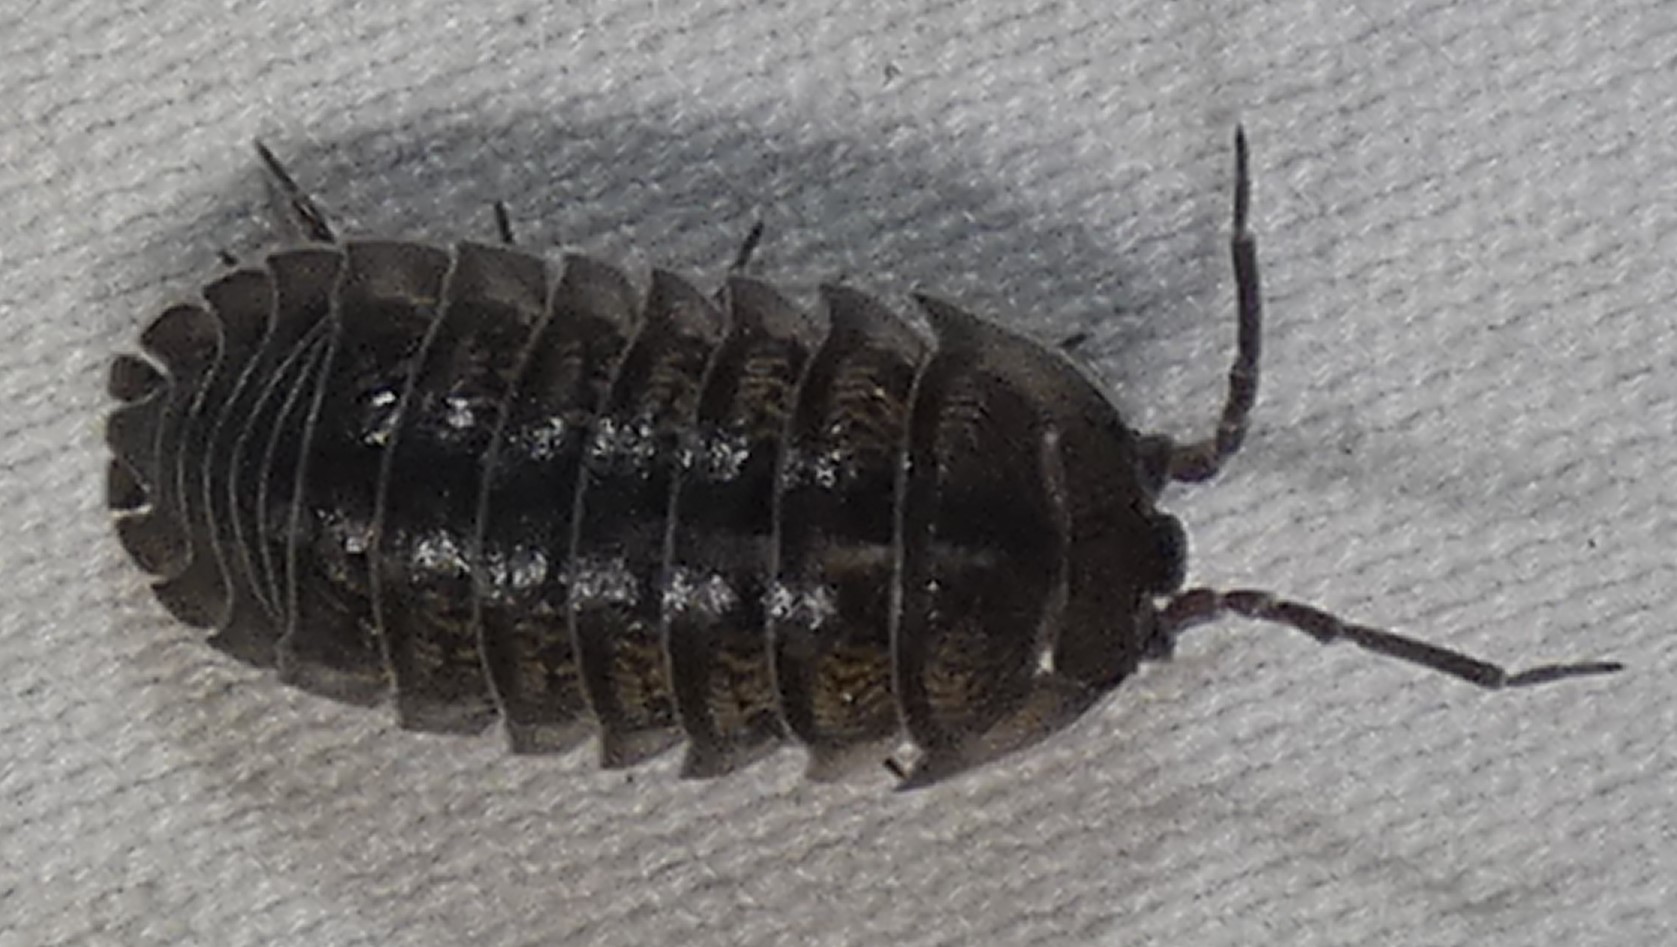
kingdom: Animalia
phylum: Arthropoda
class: Malacostraca
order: Isopoda
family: Armadillidiidae
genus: Armadillidium
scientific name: Armadillidium nasatum
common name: Isopod
